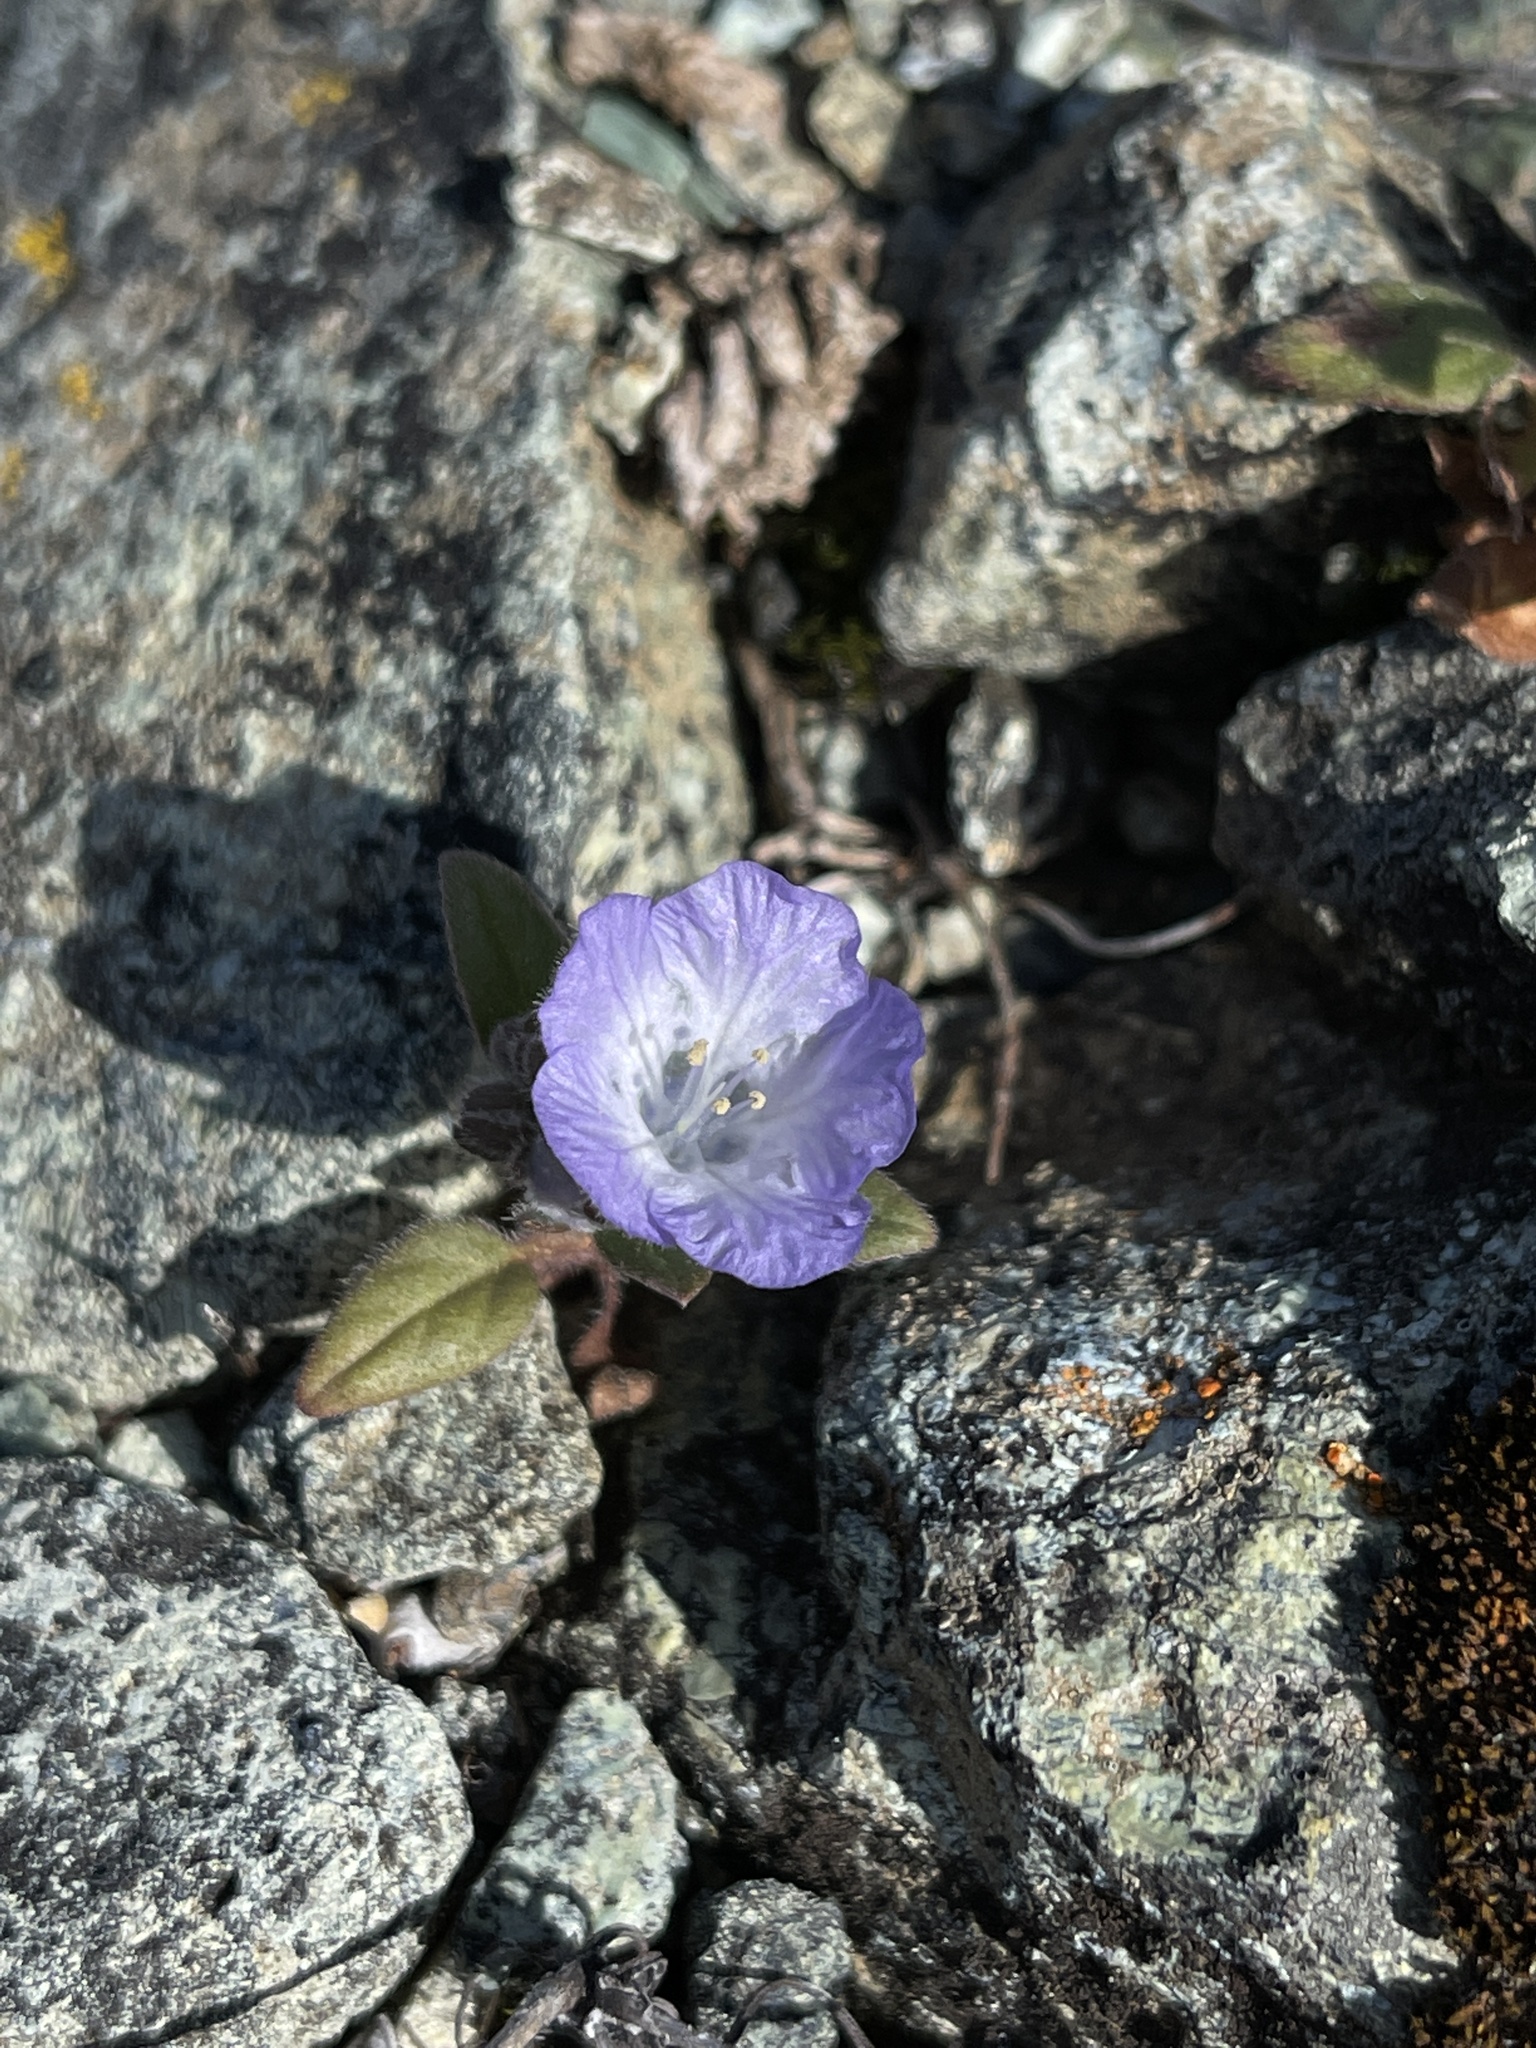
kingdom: Plantae
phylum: Tracheophyta
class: Magnoliopsida
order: Boraginales
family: Hydrophyllaceae
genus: Phacelia
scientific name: Phacelia divaricata
